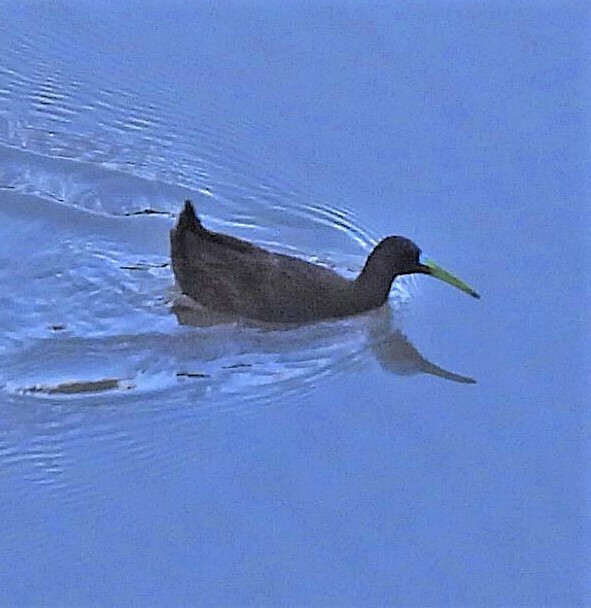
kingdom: Animalia
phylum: Chordata
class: Aves
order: Gruiformes
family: Rallidae
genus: Pardirallus
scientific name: Pardirallus sanguinolentus
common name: Plumbeous rail
